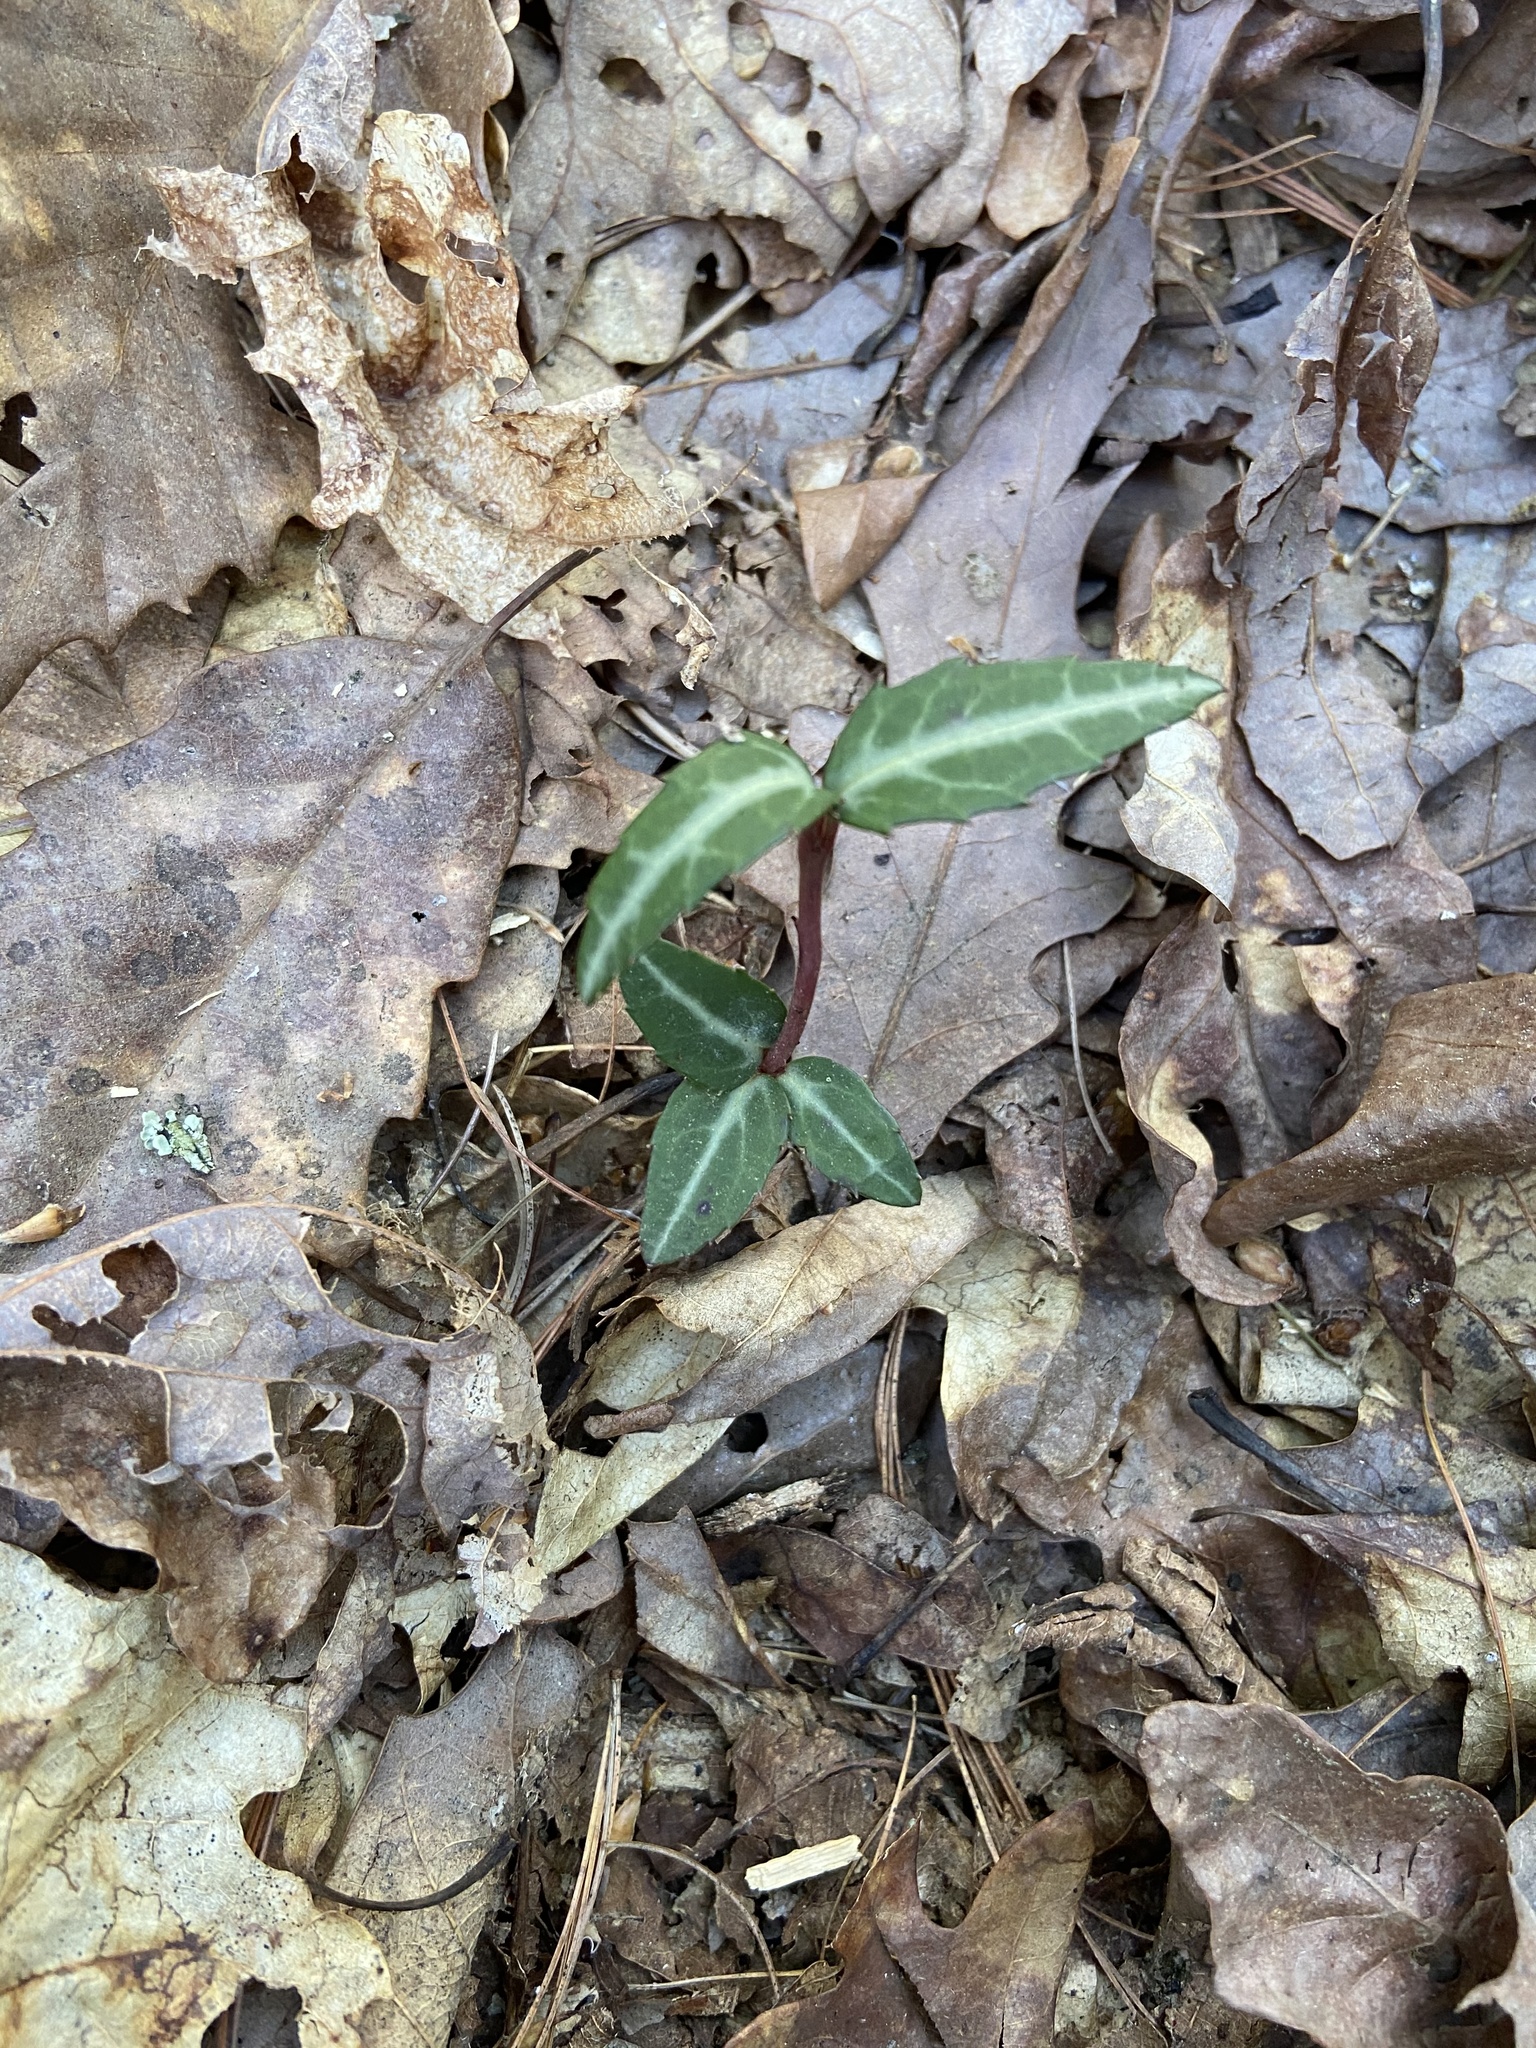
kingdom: Plantae
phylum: Tracheophyta
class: Magnoliopsida
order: Ericales
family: Ericaceae
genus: Chimaphila
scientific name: Chimaphila maculata
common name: Spotted pipsissewa
